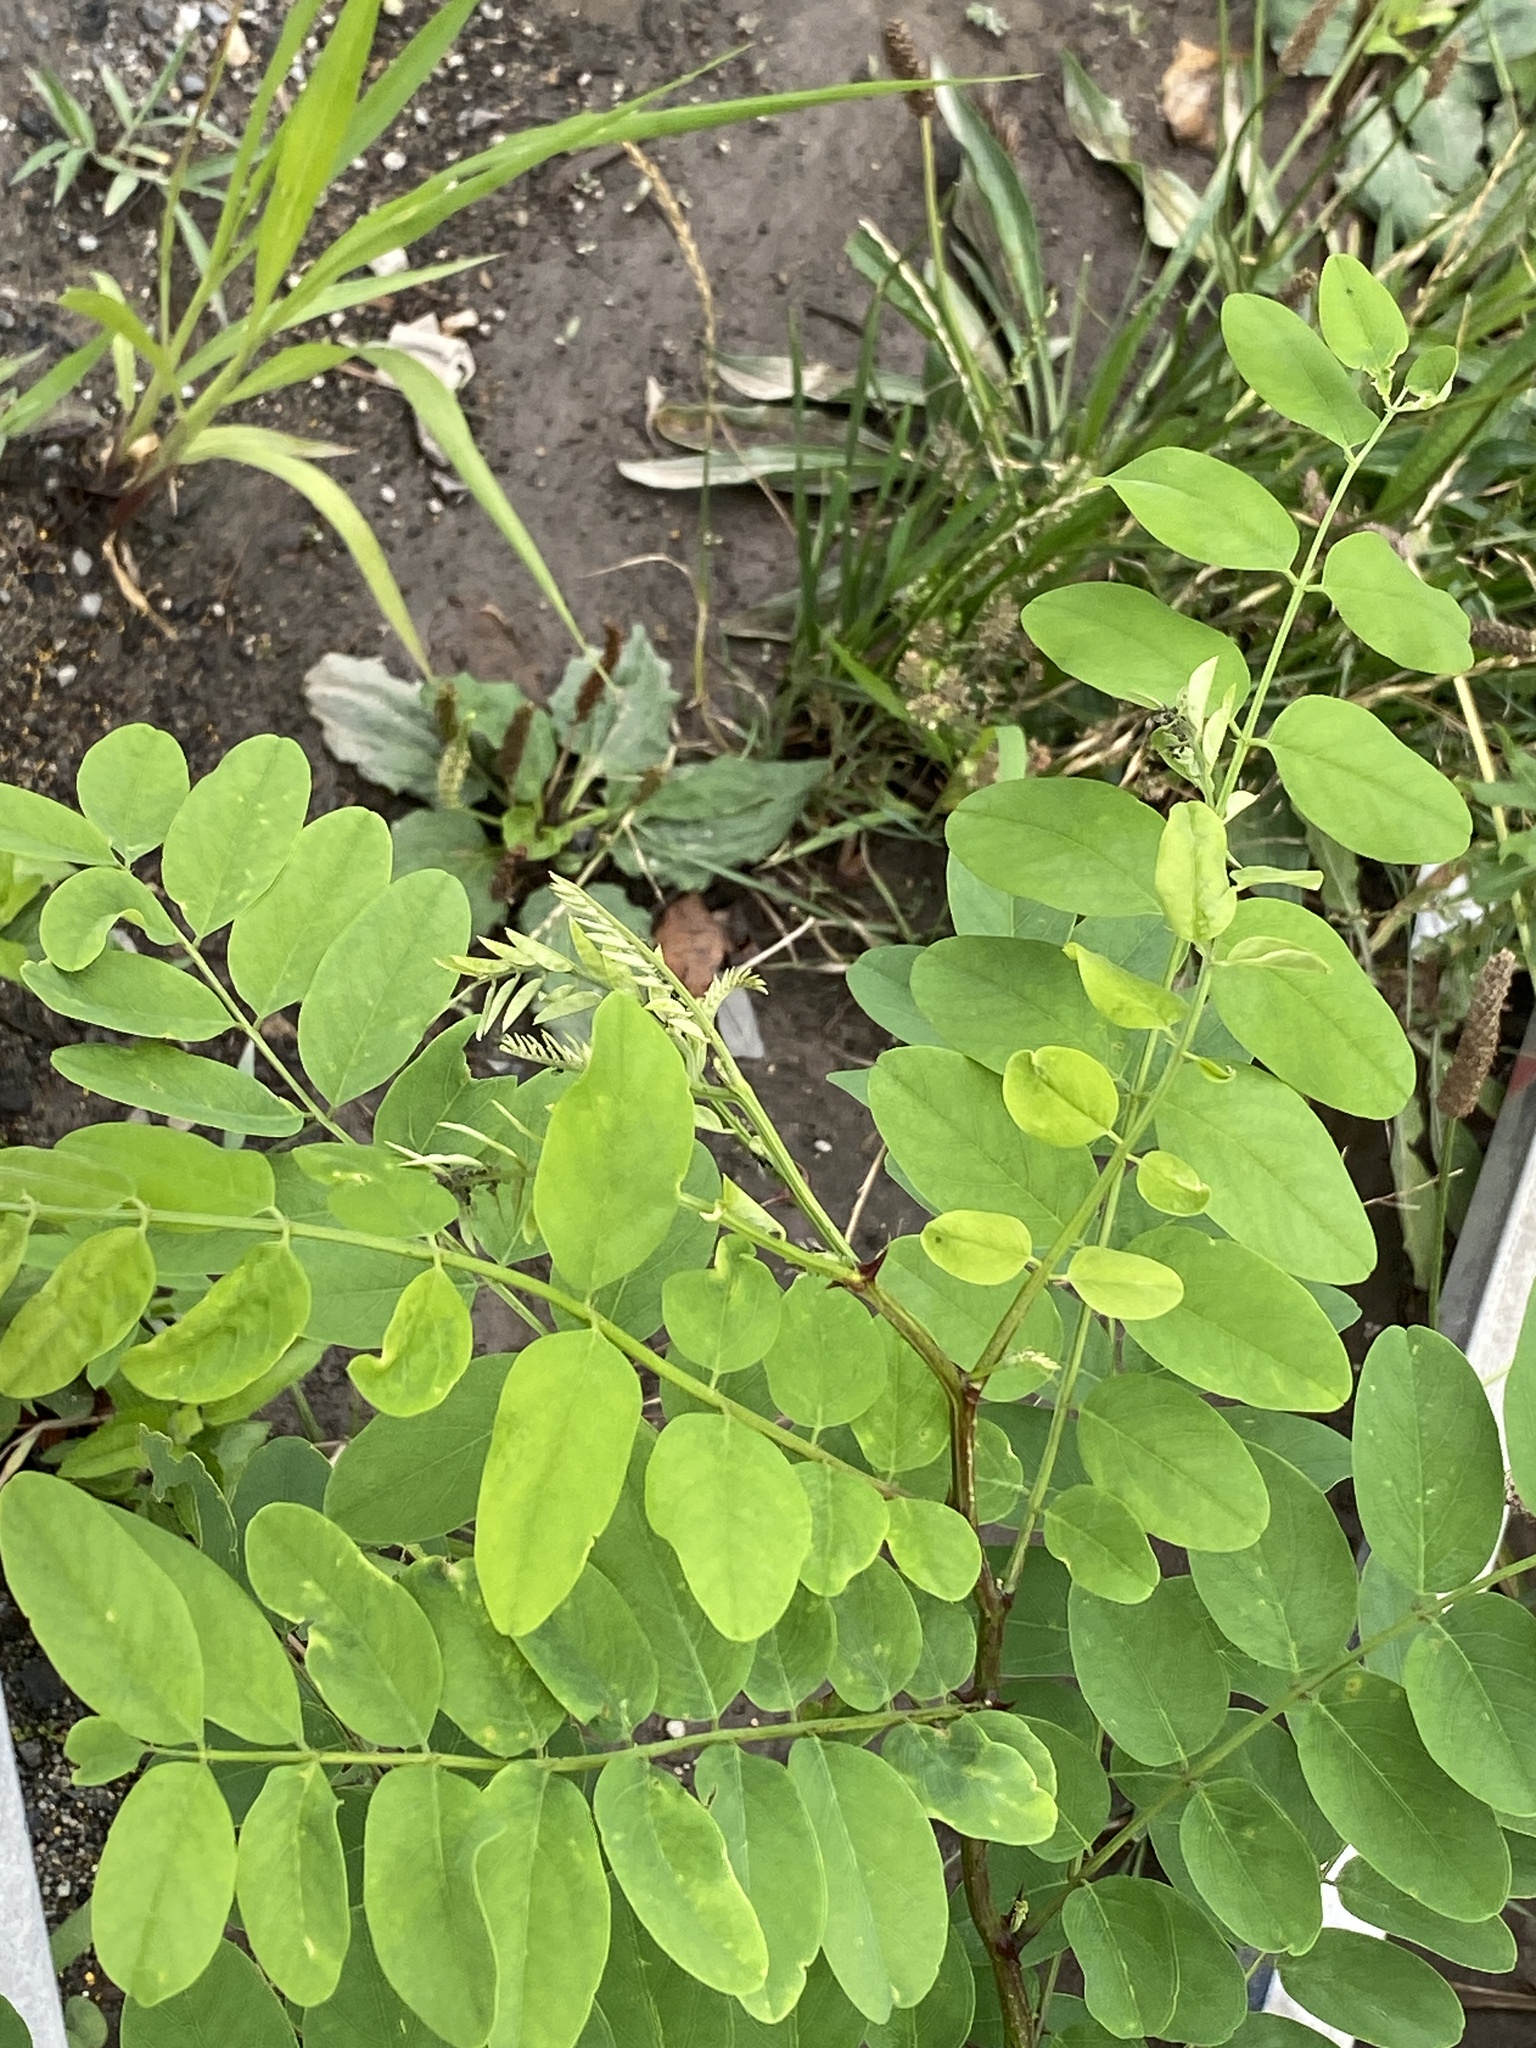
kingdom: Plantae
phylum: Tracheophyta
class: Magnoliopsida
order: Fabales
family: Fabaceae
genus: Robinia
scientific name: Robinia pseudoacacia
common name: Black locust
